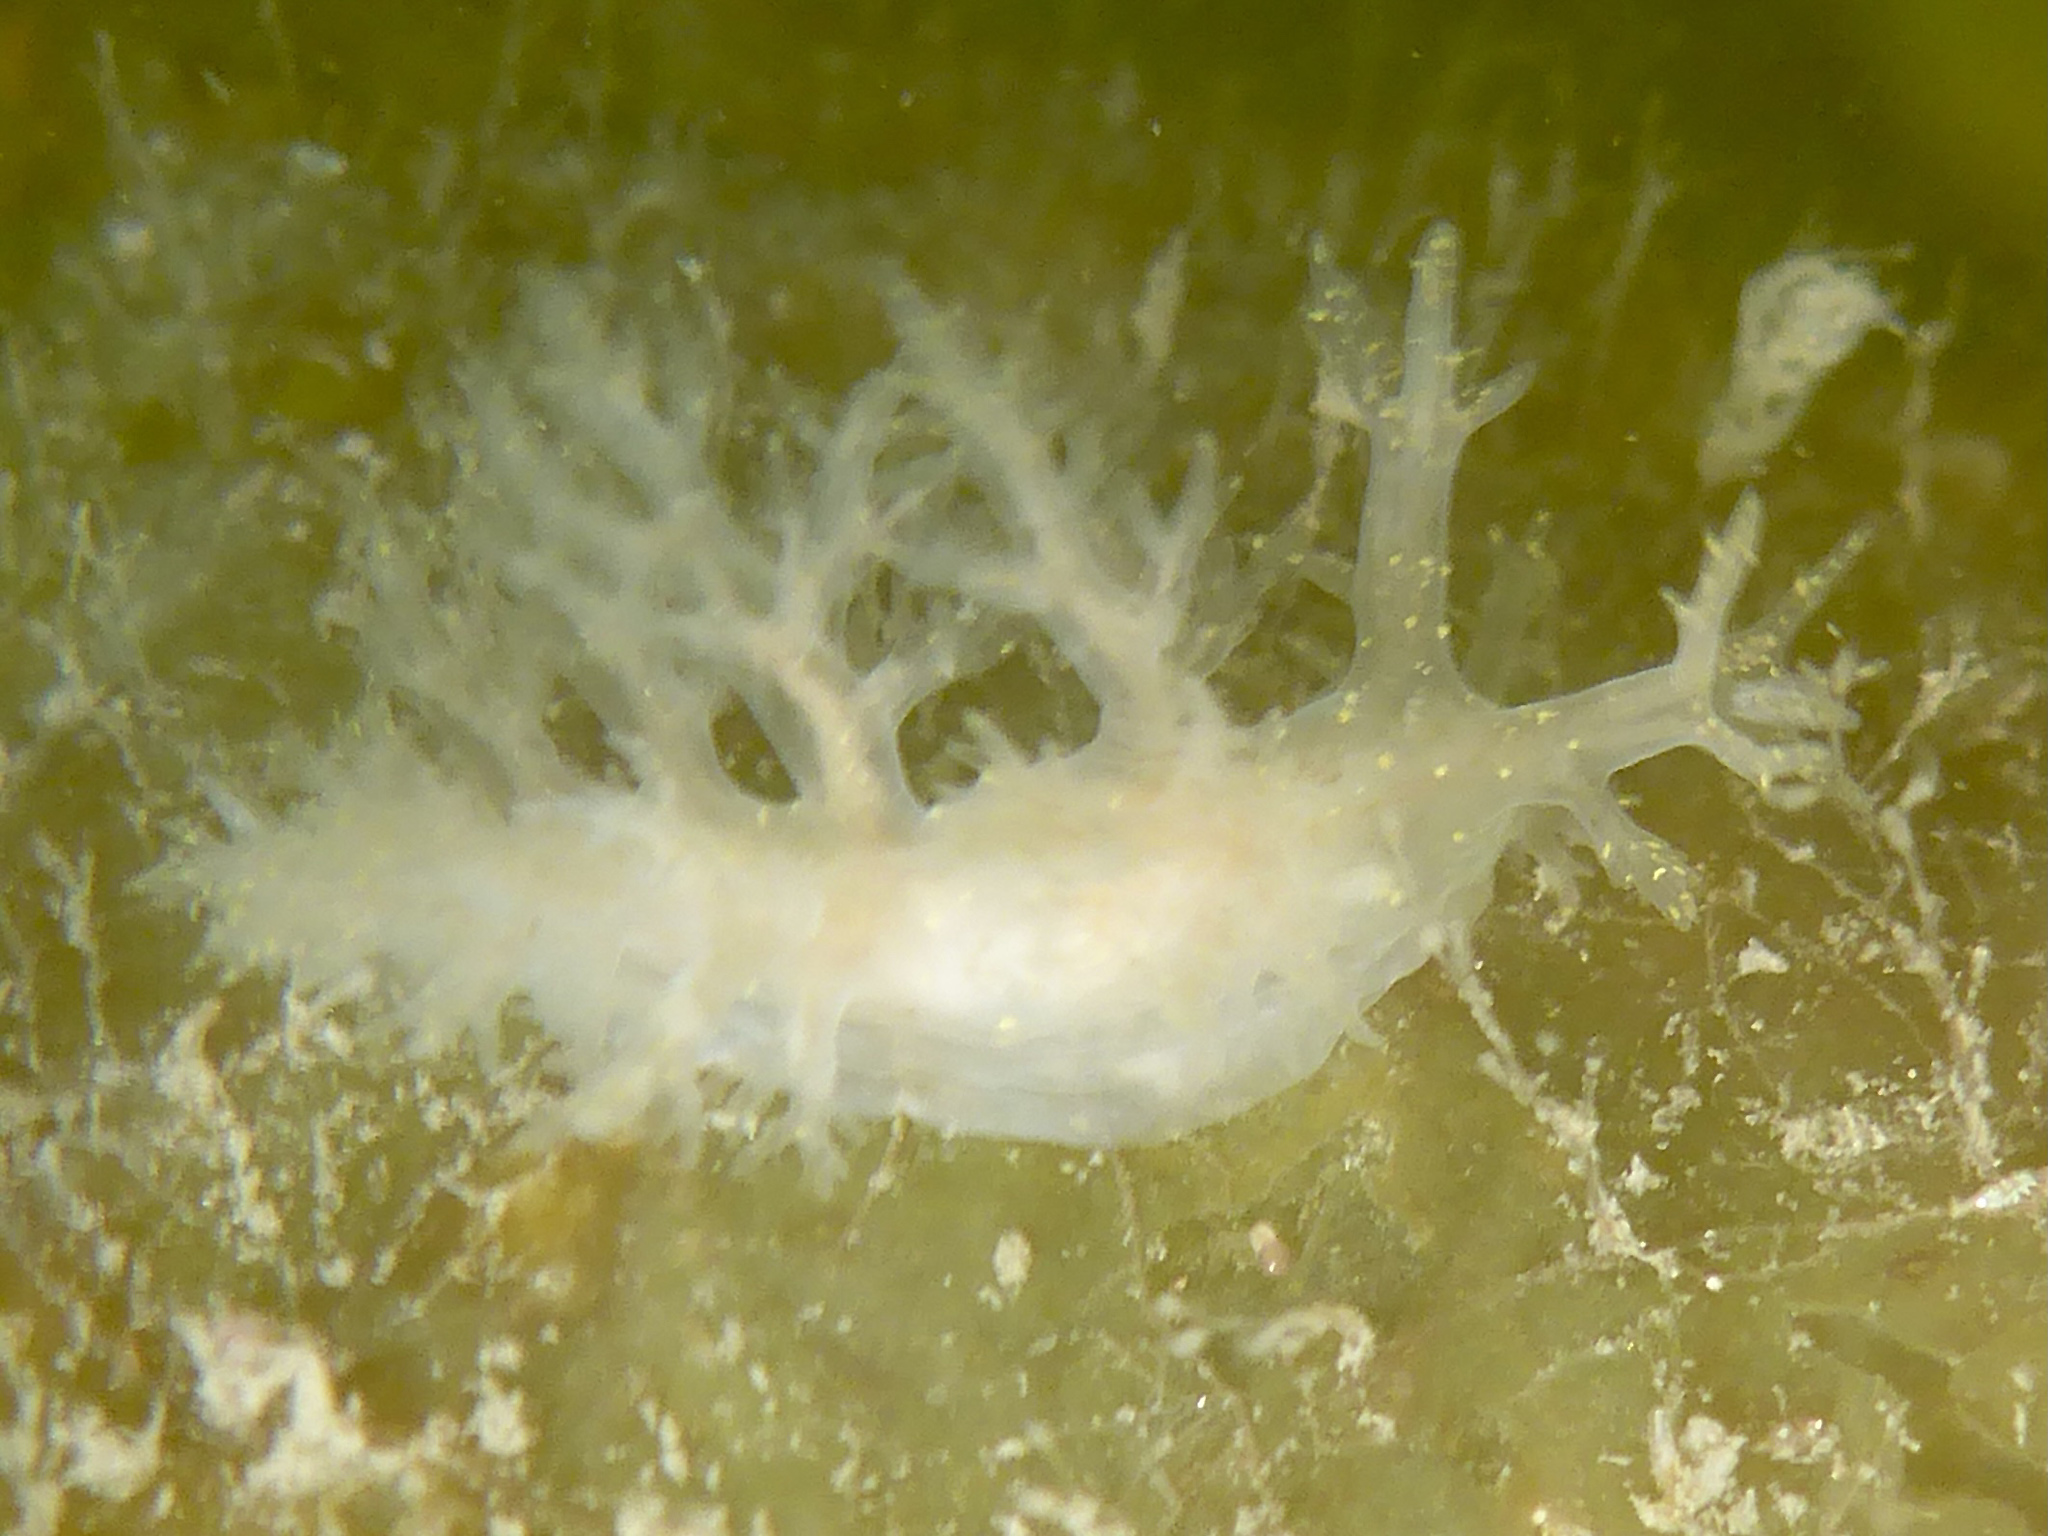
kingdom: Animalia
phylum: Mollusca
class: Gastropoda
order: Nudibranchia
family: Dendronotidae
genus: Dendronotus
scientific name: Dendronotus venustus
